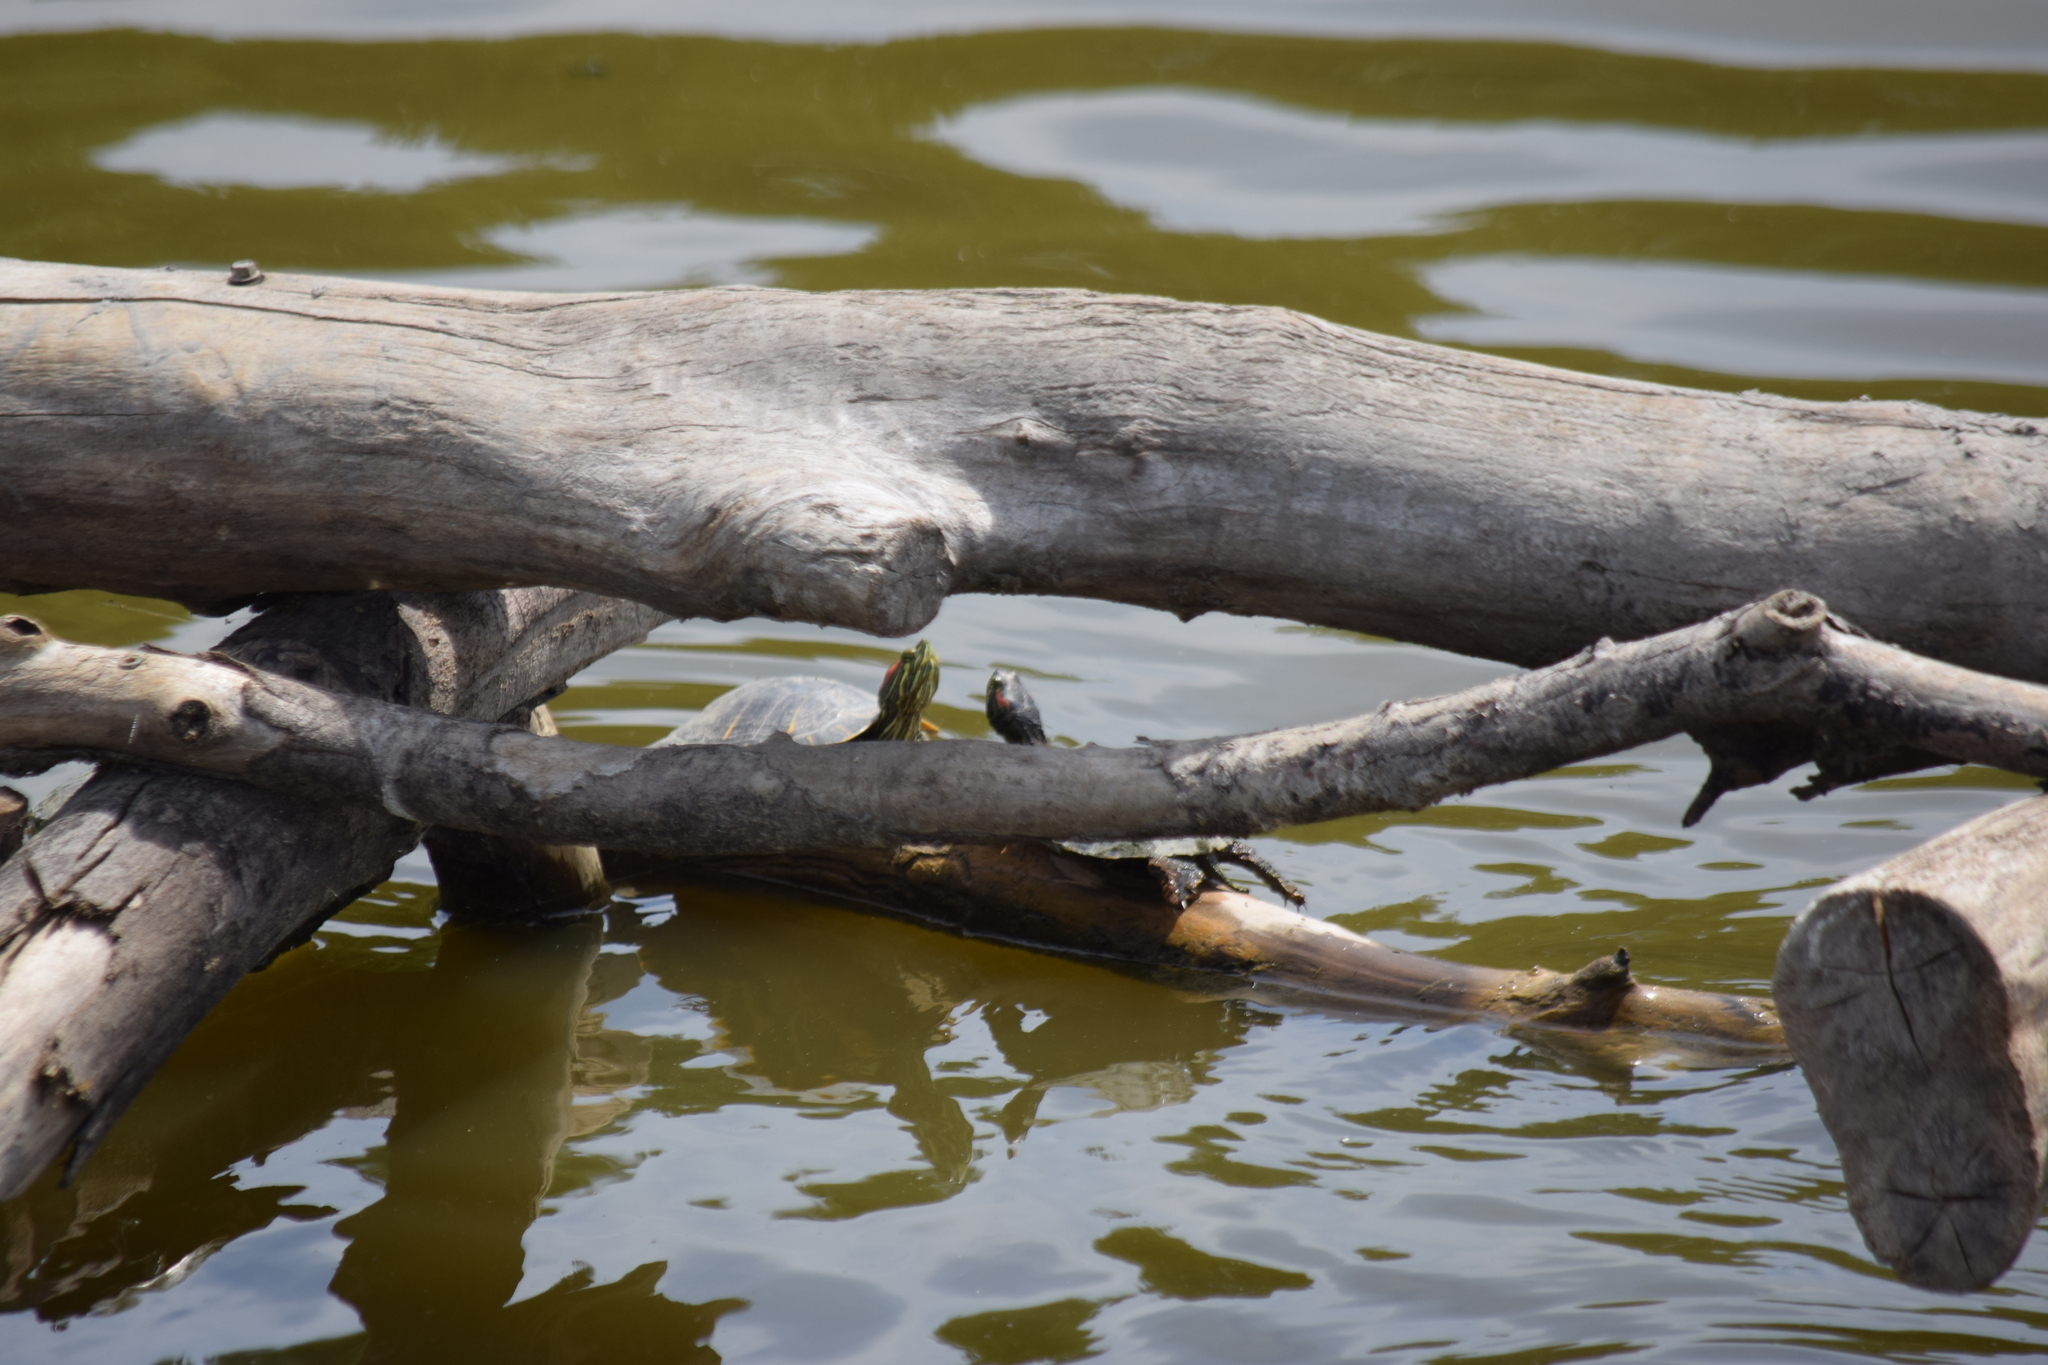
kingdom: Animalia
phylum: Chordata
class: Testudines
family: Emydidae
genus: Trachemys
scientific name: Trachemys scripta
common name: Slider
